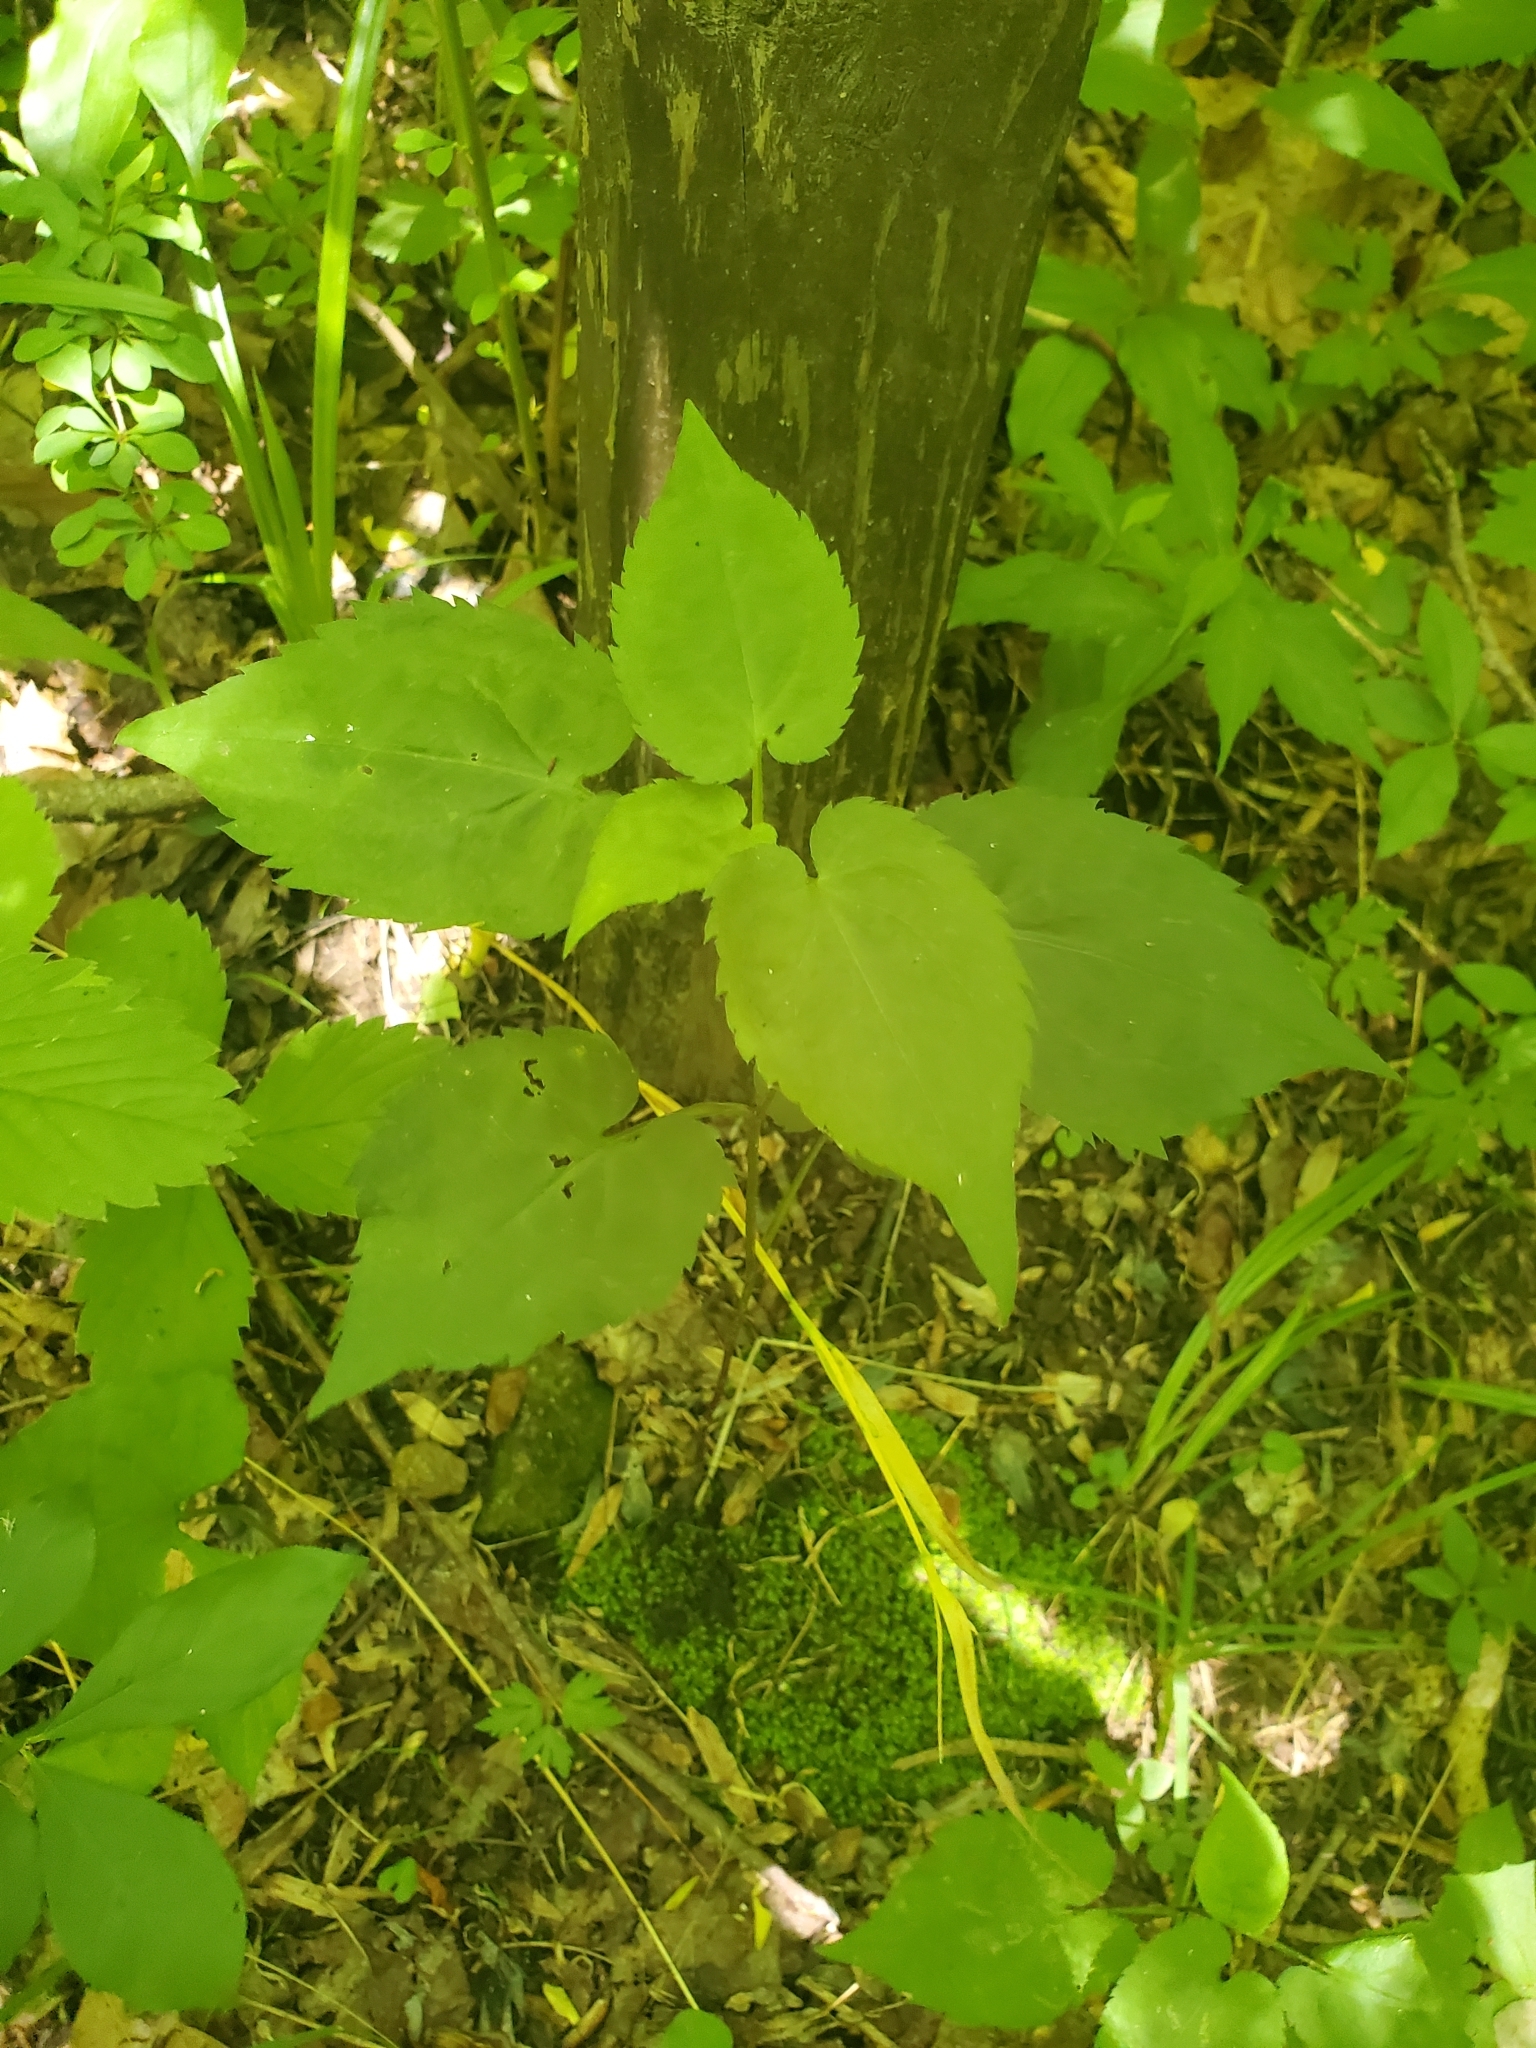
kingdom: Plantae
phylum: Tracheophyta
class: Magnoliopsida
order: Asterales
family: Asteraceae
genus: Symphyotrichum
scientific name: Symphyotrichum cordifolium
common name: Beeweed
